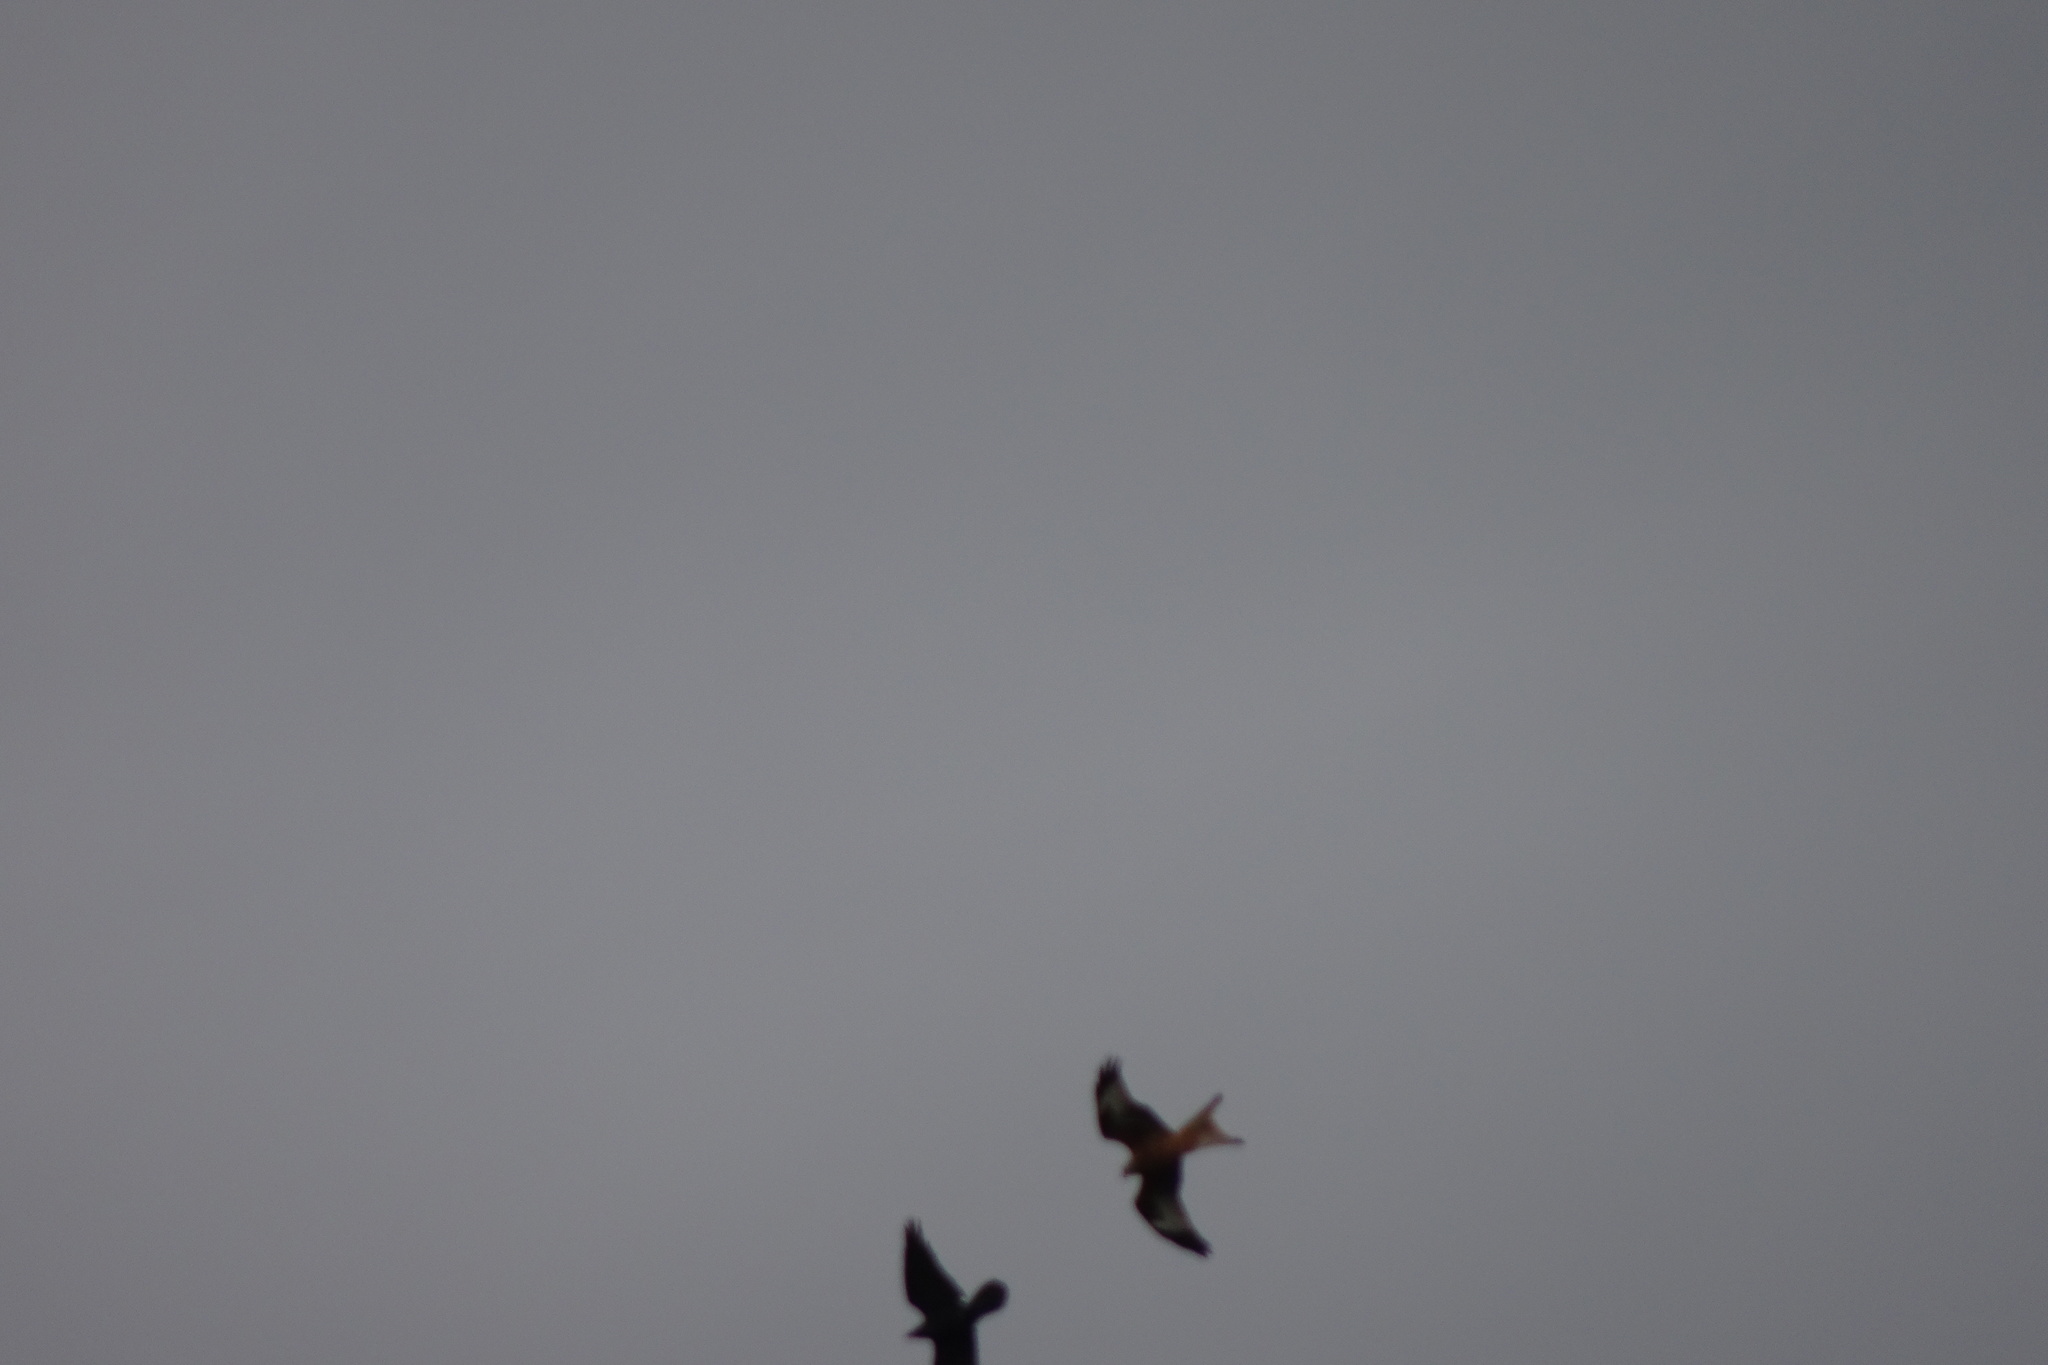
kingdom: Animalia
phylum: Chordata
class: Aves
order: Accipitriformes
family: Accipitridae
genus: Milvus
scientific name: Milvus milvus
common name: Red kite
